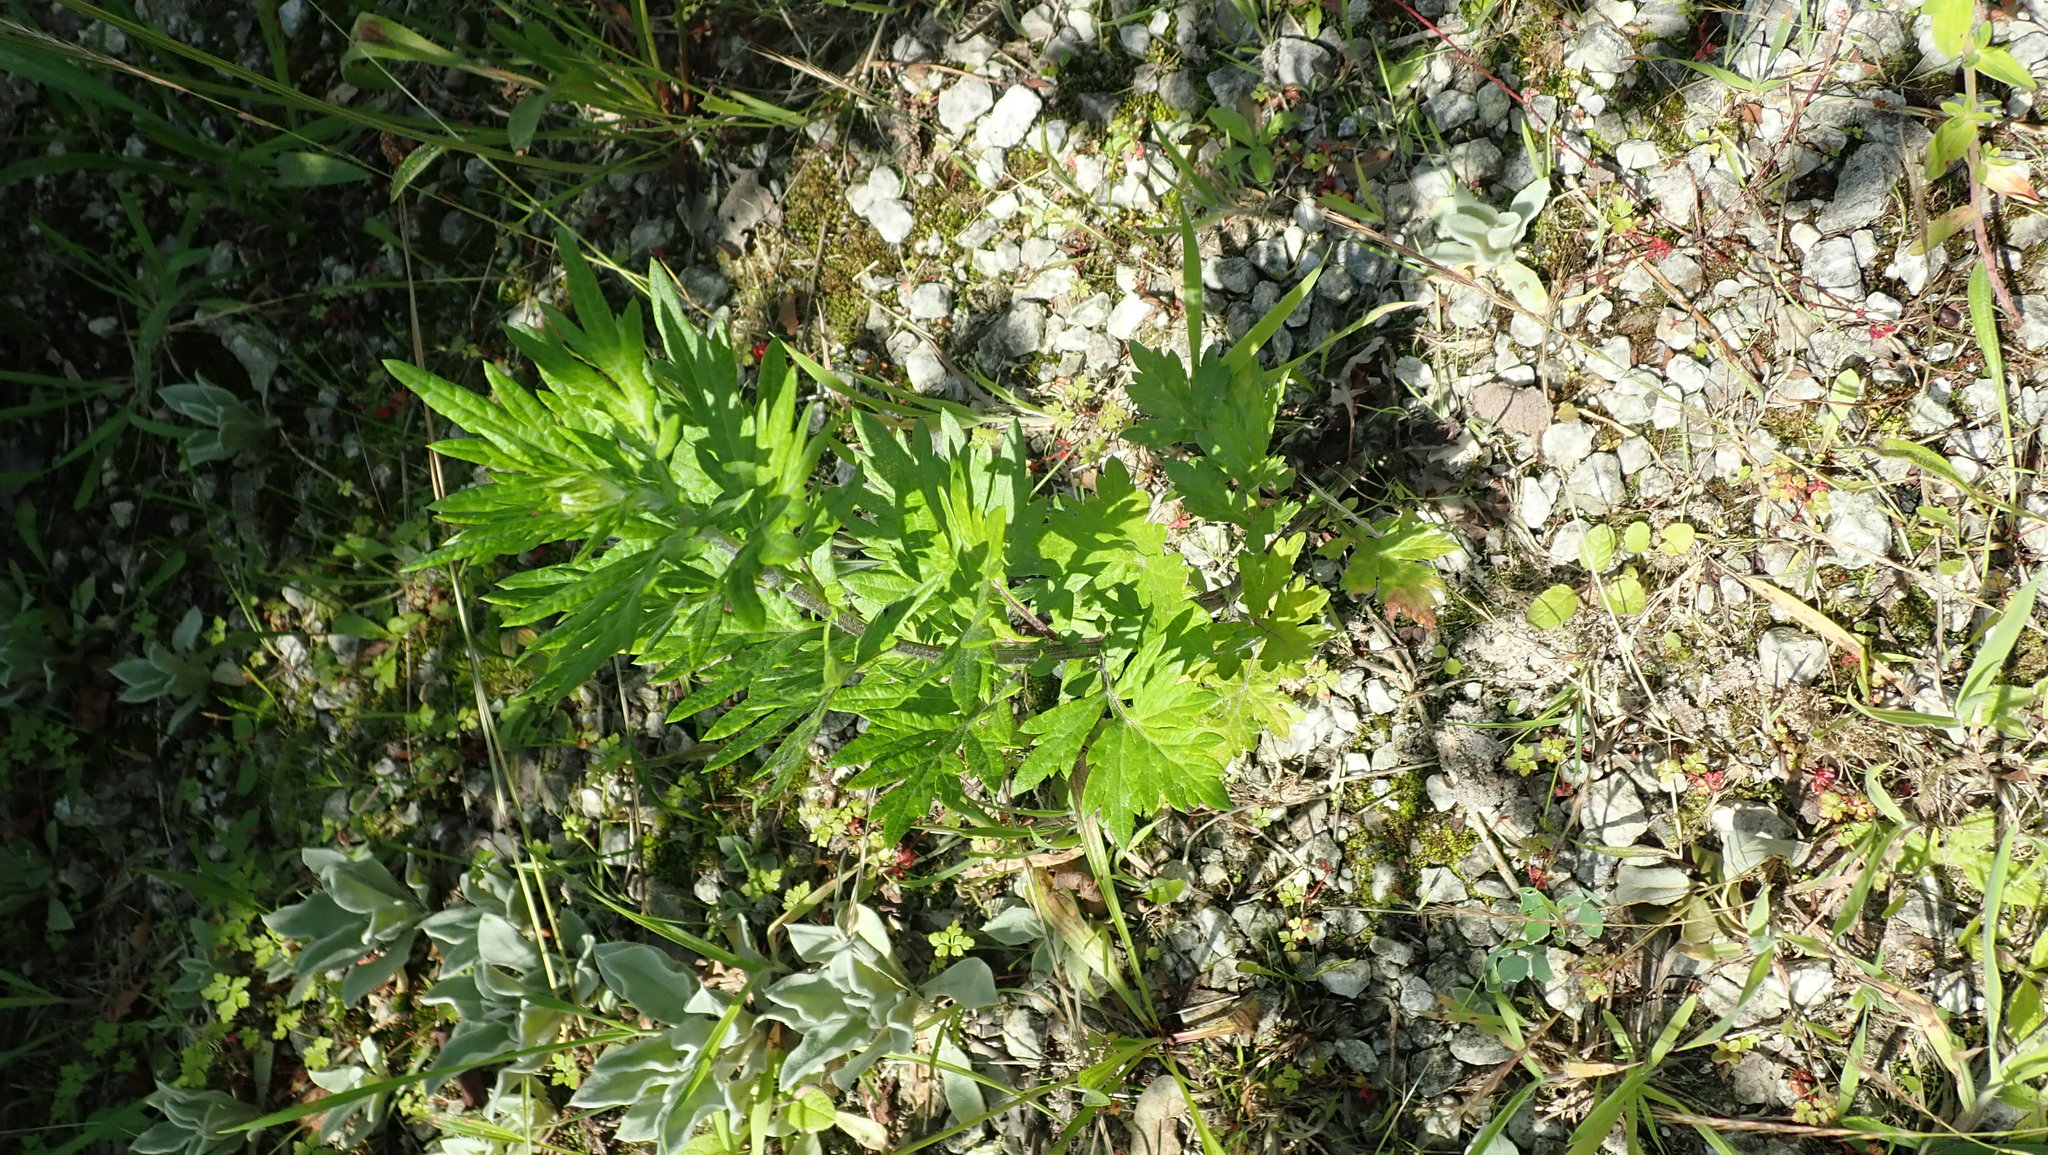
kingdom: Plantae
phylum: Tracheophyta
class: Magnoliopsida
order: Asterales
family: Asteraceae
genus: Artemisia
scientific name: Artemisia vulgaris
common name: Mugwort
